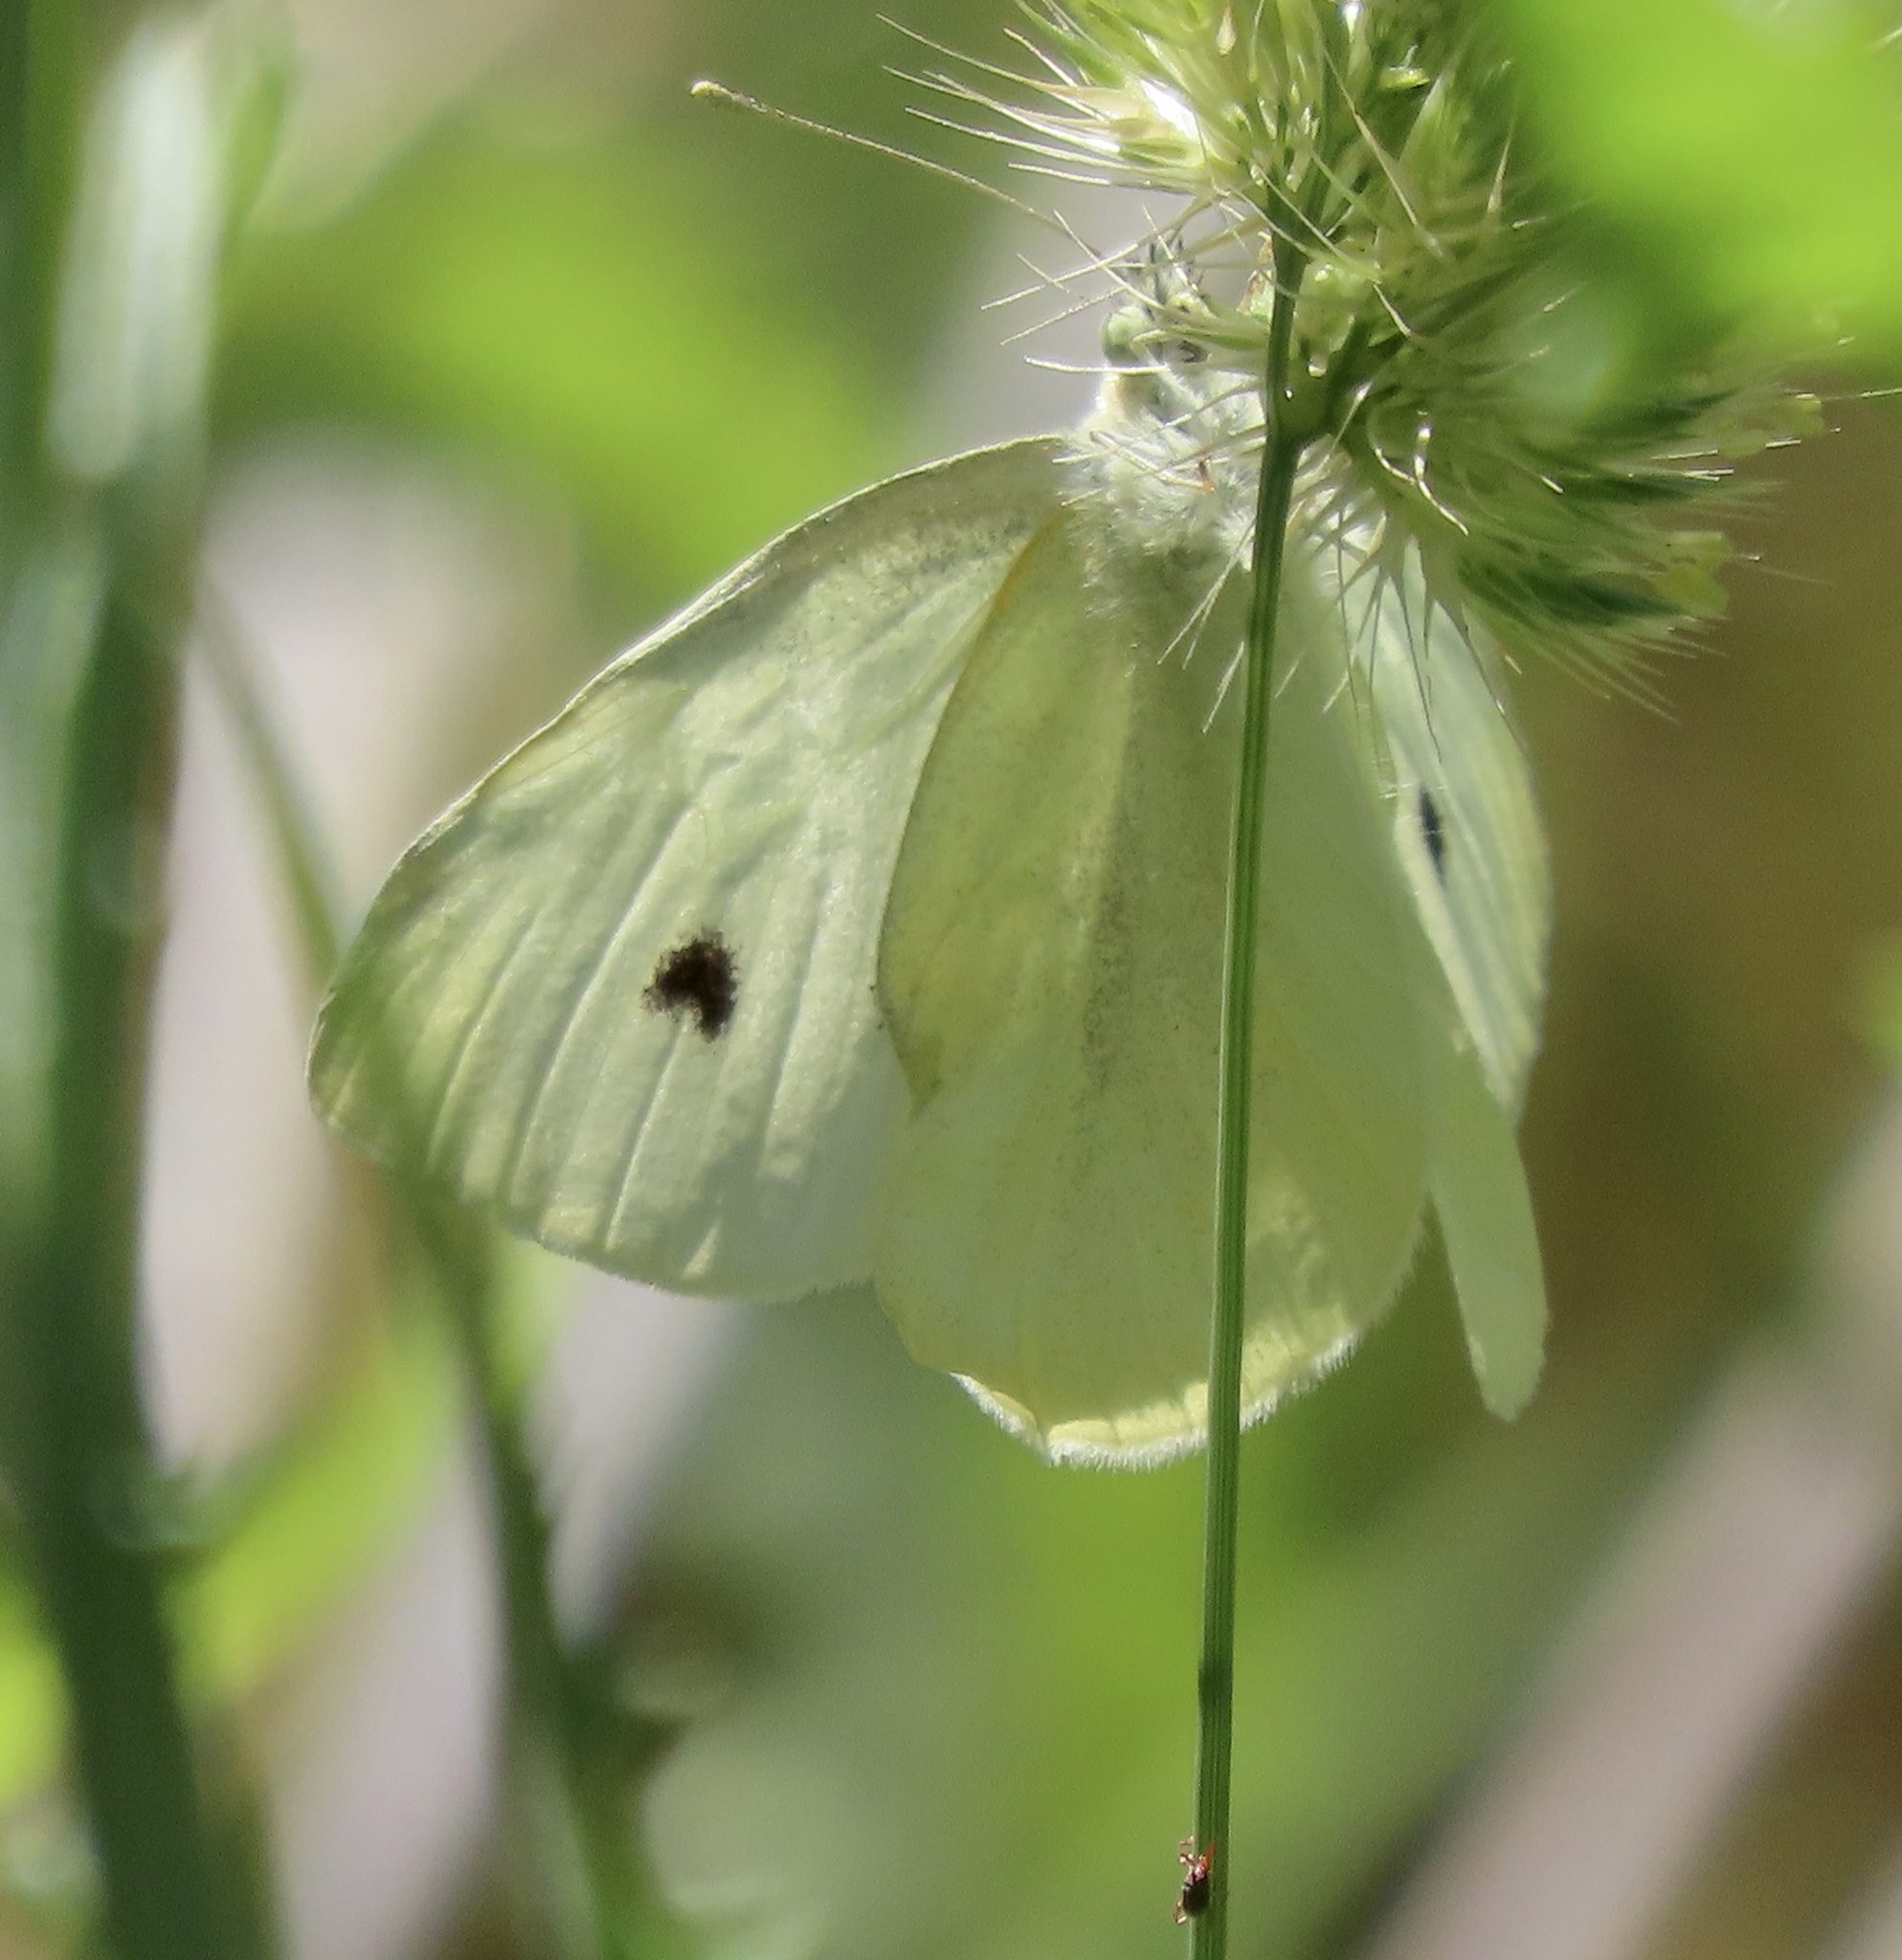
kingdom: Animalia
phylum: Arthropoda
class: Insecta
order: Lepidoptera
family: Pieridae
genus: Pieris
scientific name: Pieris rapae
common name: Small white
